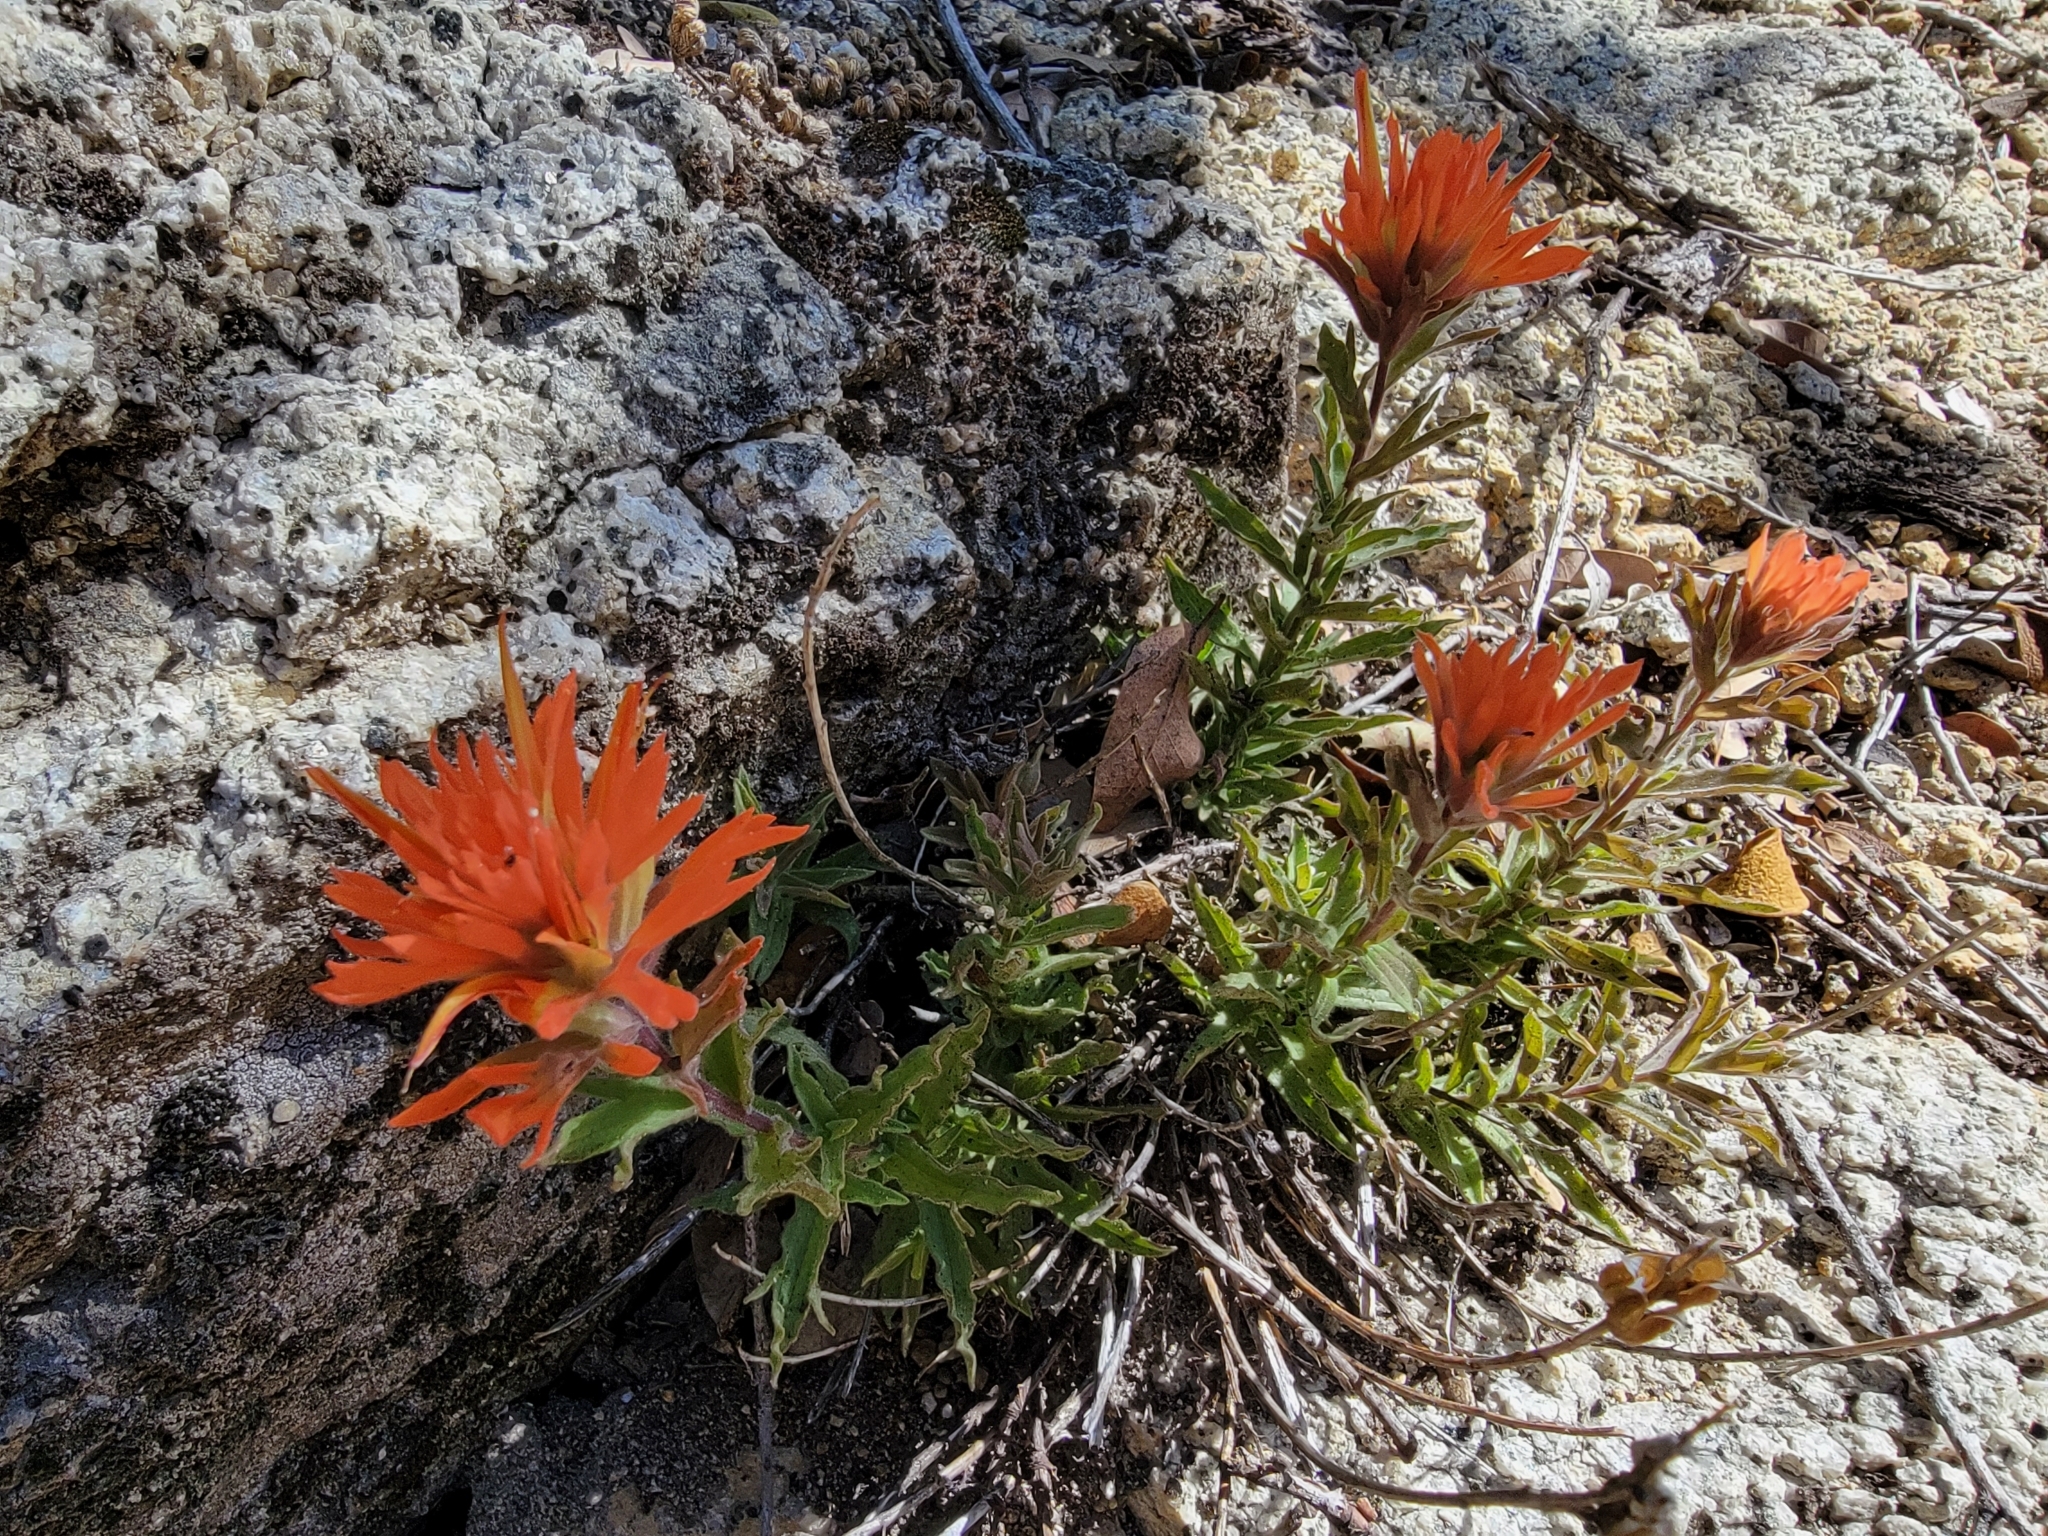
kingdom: Plantae
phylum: Tracheophyta
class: Magnoliopsida
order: Lamiales
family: Orobanchaceae
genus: Castilleja
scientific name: Castilleja applegatei
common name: Wavy-leaf paintbrush
